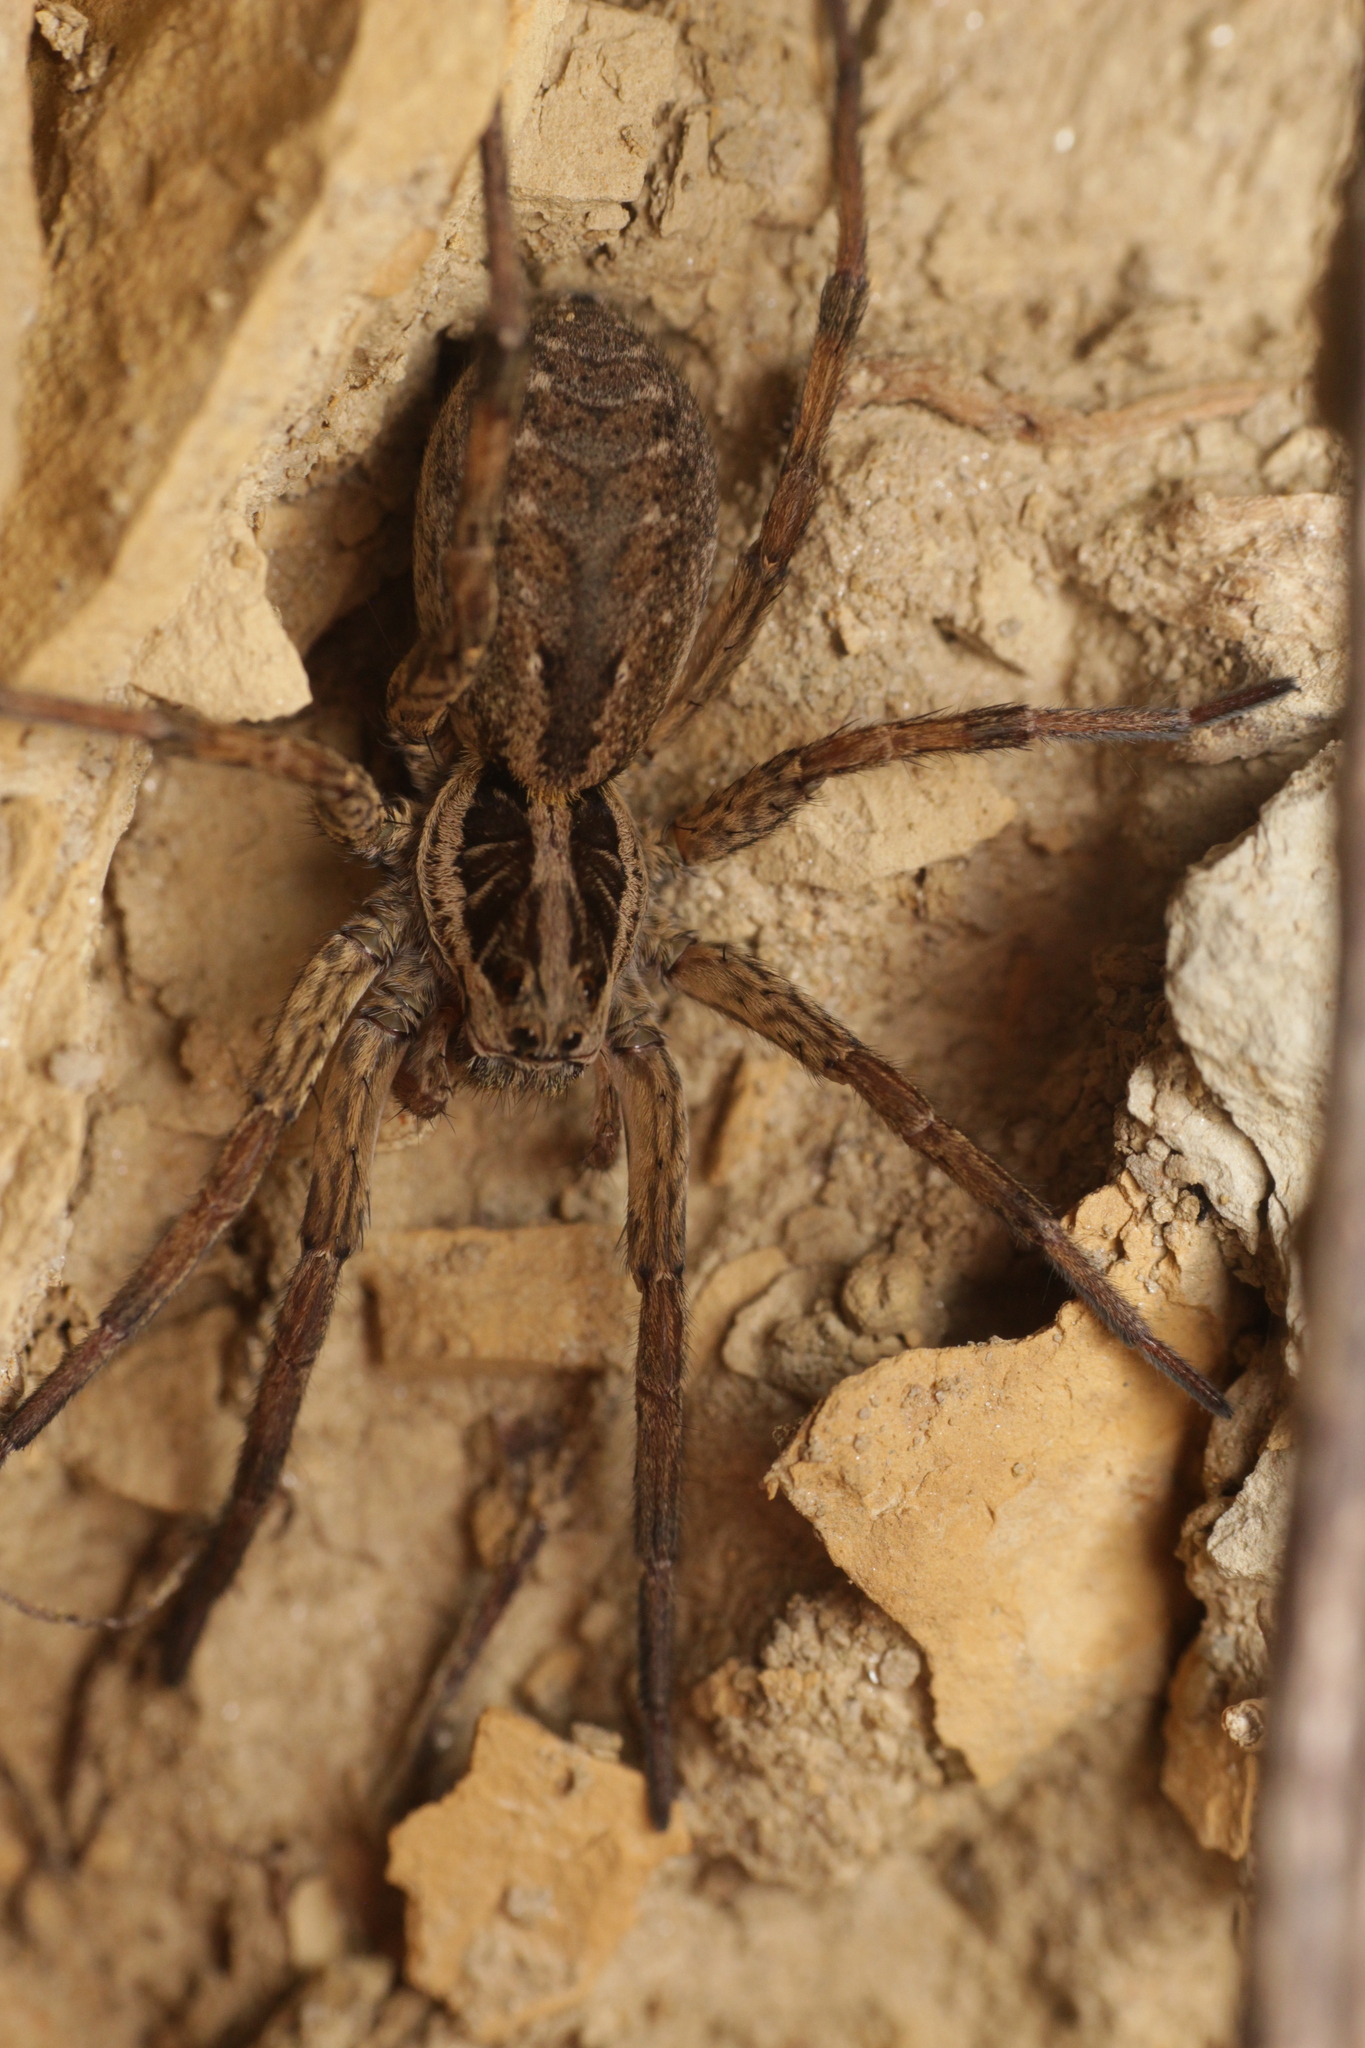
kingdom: Animalia
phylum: Arthropoda
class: Arachnida
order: Araneae
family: Lycosidae
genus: Hogna
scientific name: Hogna radiata
